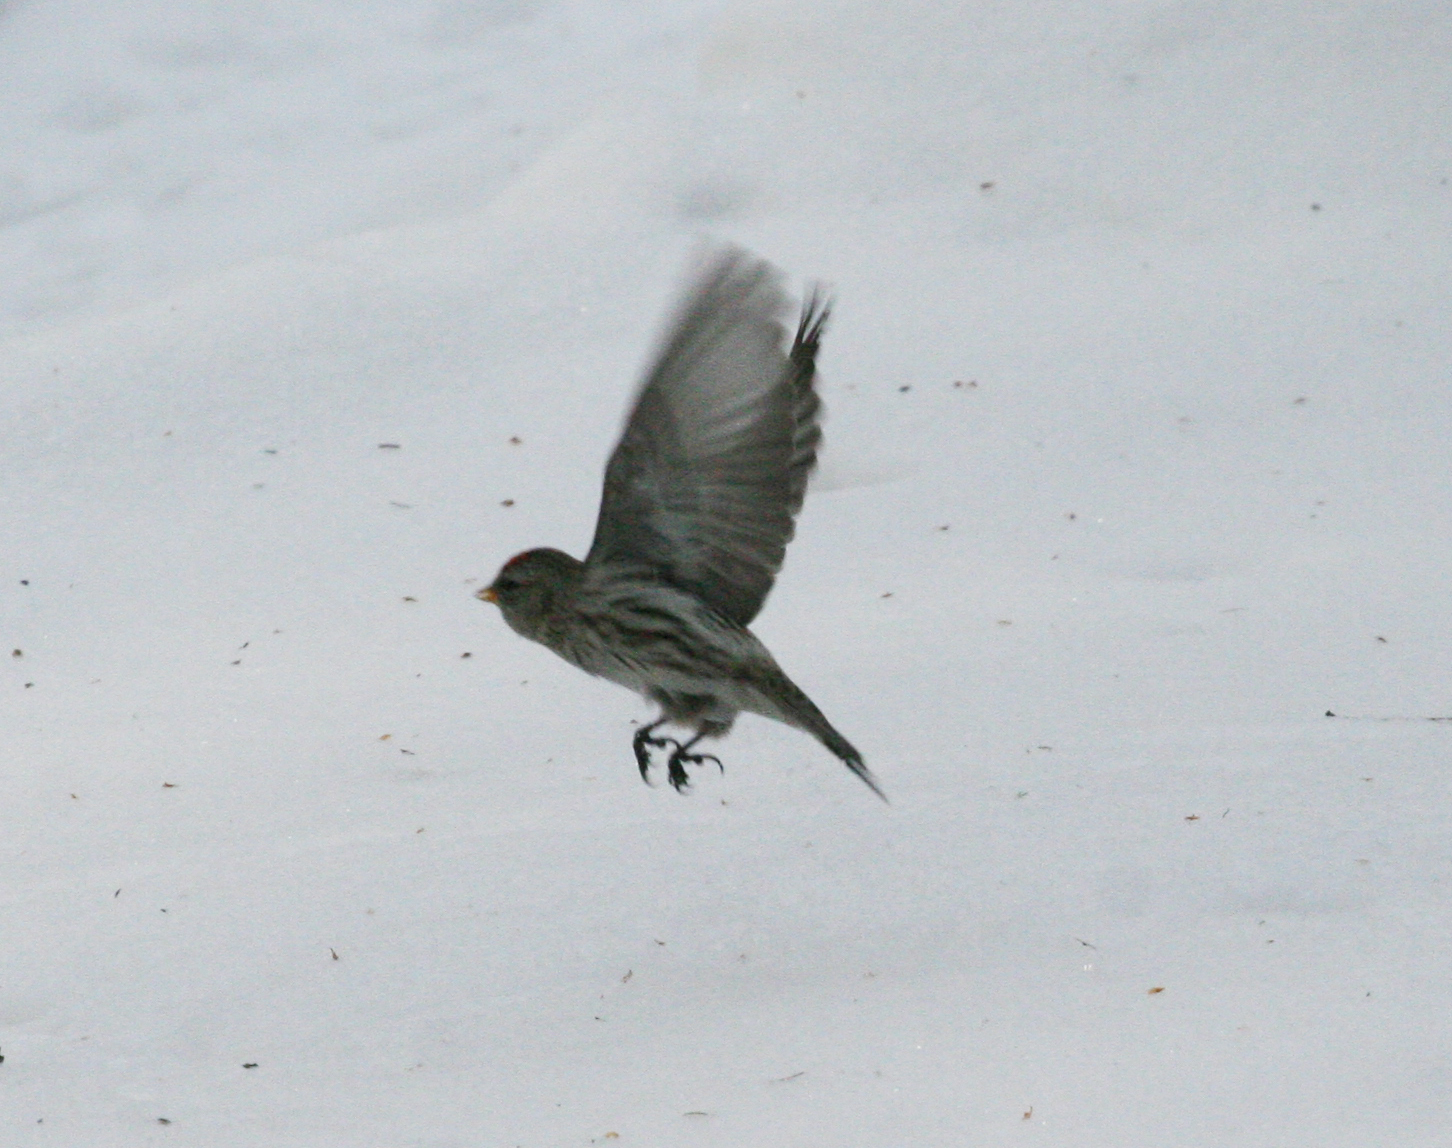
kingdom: Animalia
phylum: Chordata
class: Aves
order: Passeriformes
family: Fringillidae
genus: Acanthis
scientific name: Acanthis flammea
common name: Common redpoll
